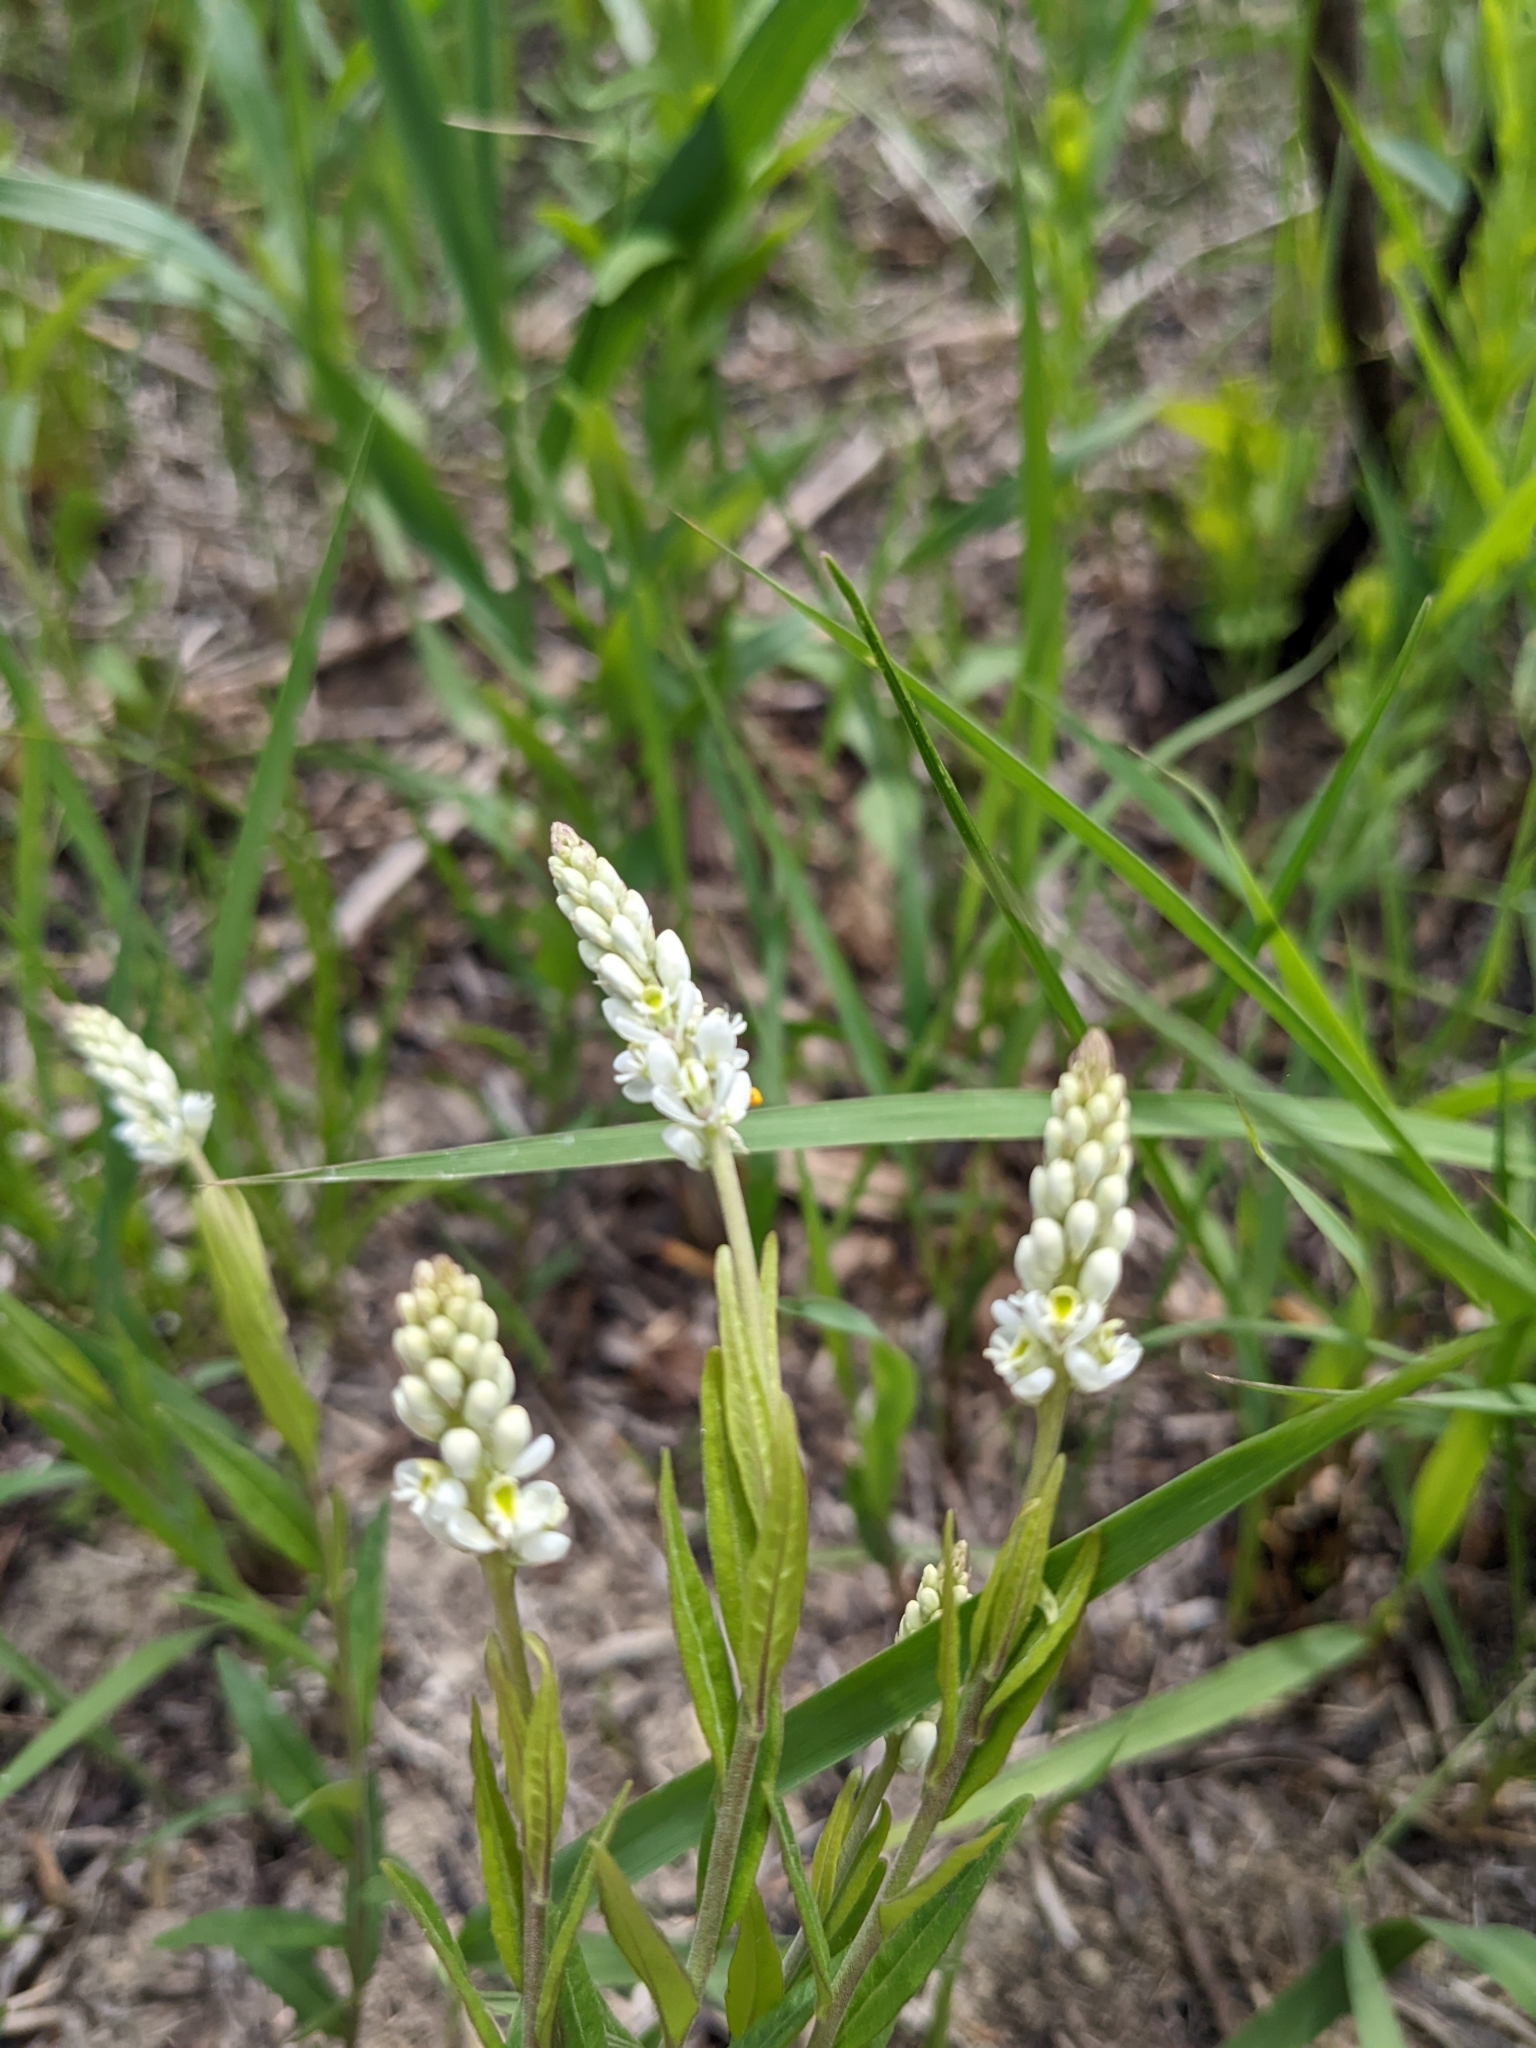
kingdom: Plantae
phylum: Tracheophyta
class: Magnoliopsida
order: Fabales
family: Polygalaceae
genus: Polygala
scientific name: Polygala senega
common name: Seneca snakeroot
